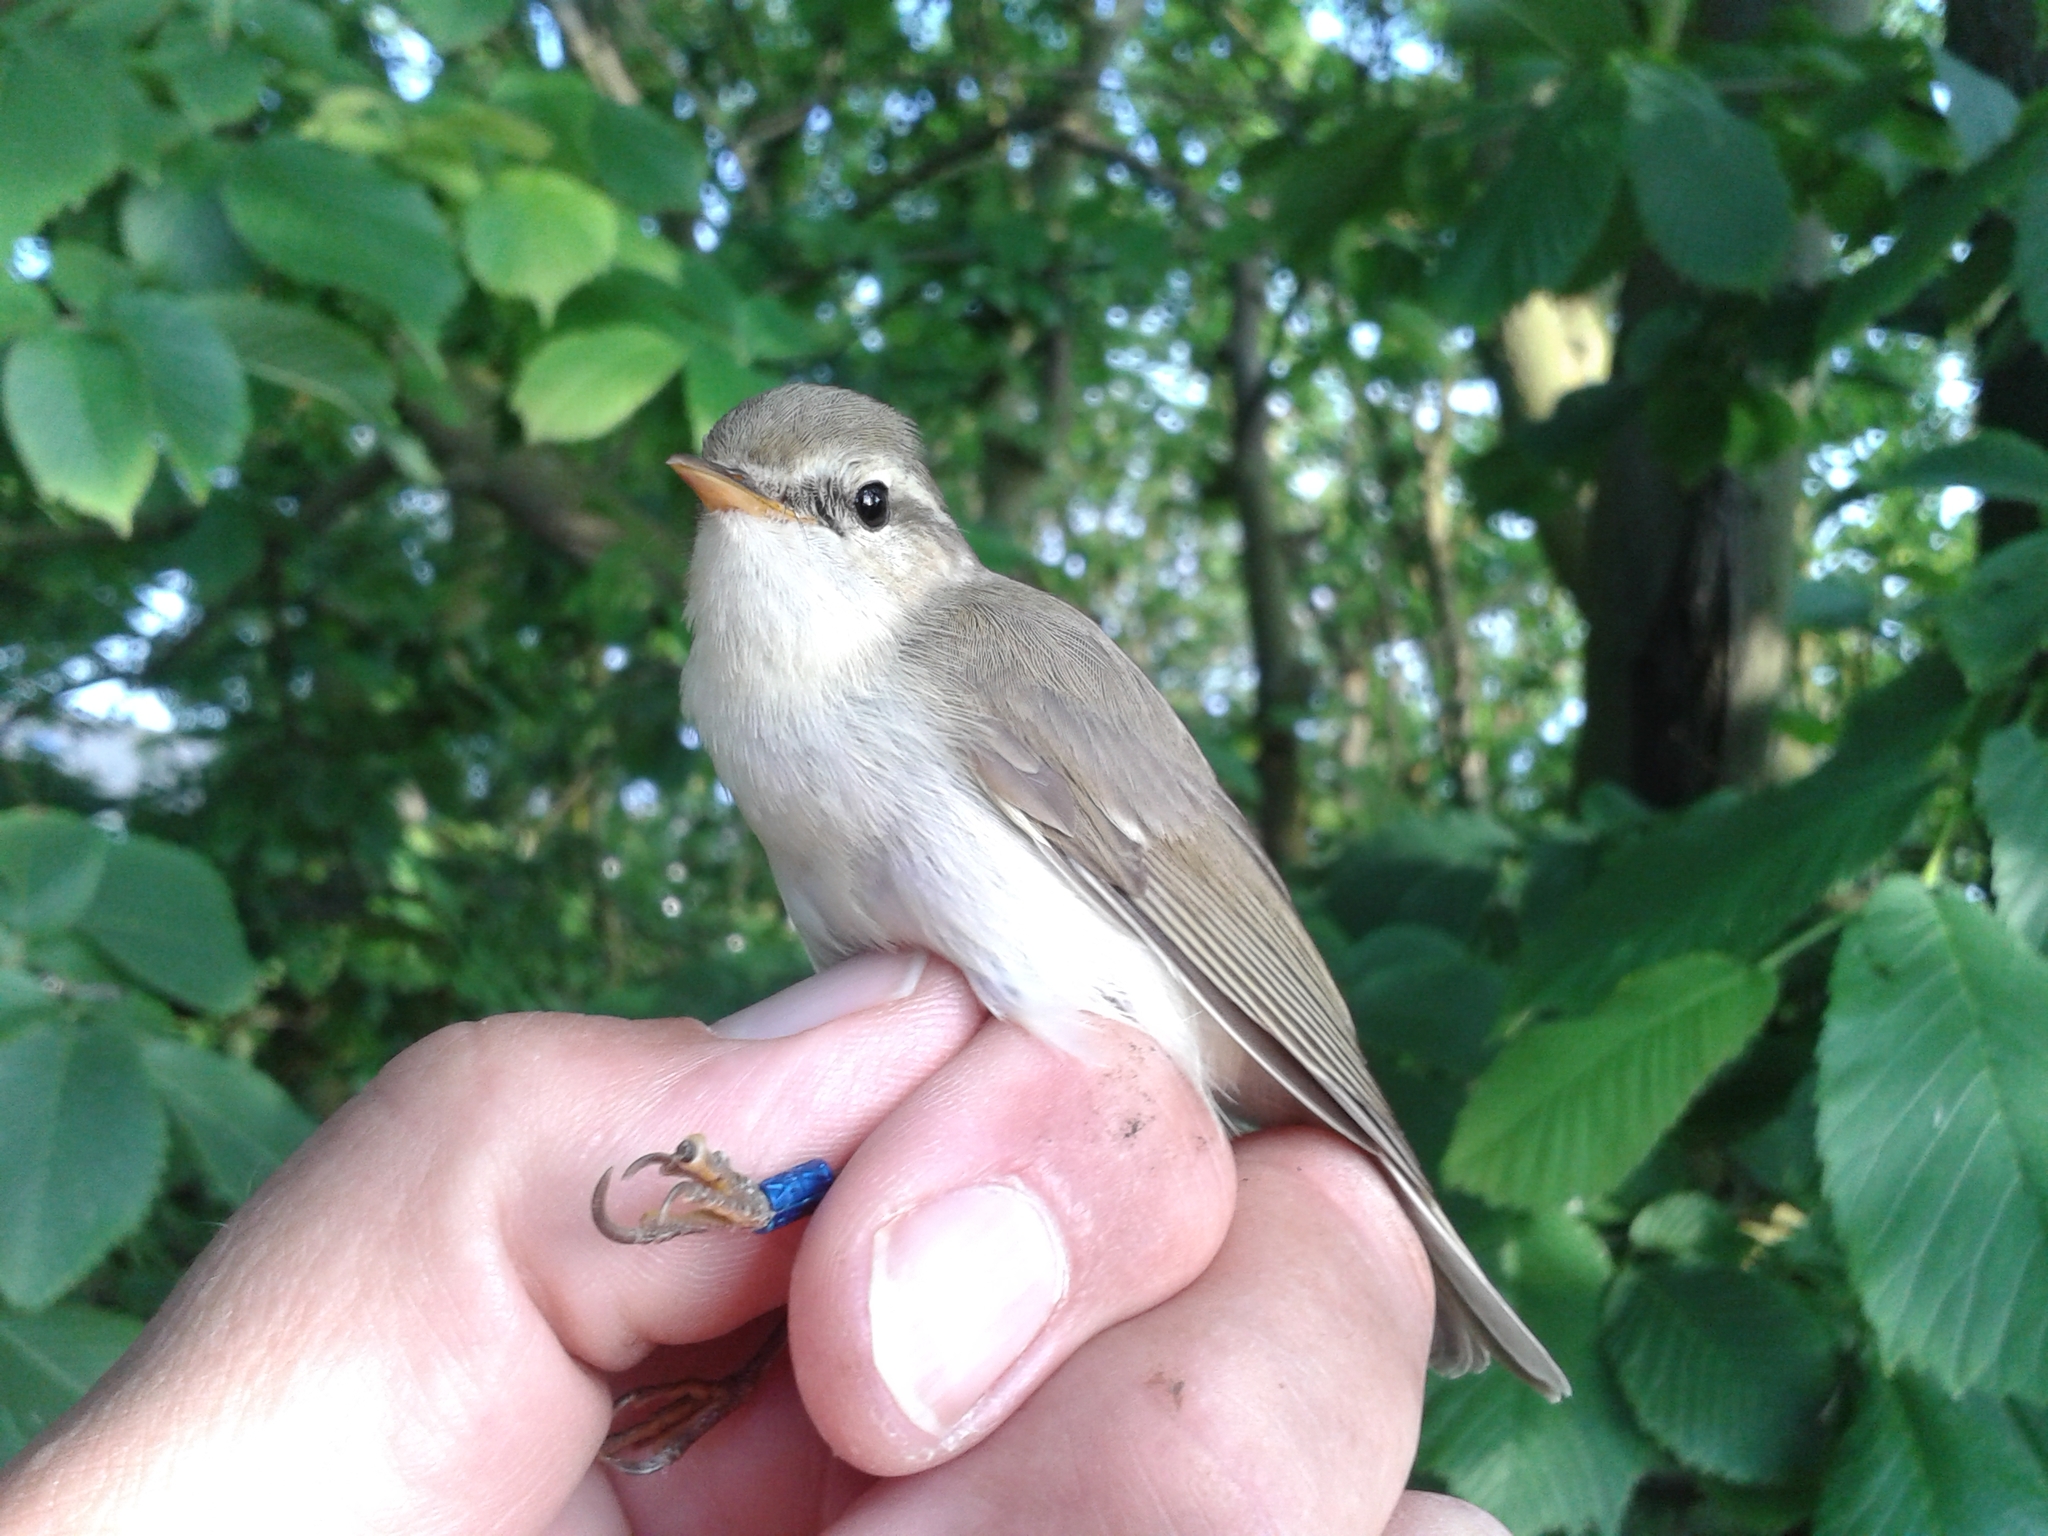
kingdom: Animalia
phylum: Chordata
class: Aves
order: Passeriformes
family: Phylloscopidae
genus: Phylloscopus
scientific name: Phylloscopus trochiloides
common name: Greenish warbler
